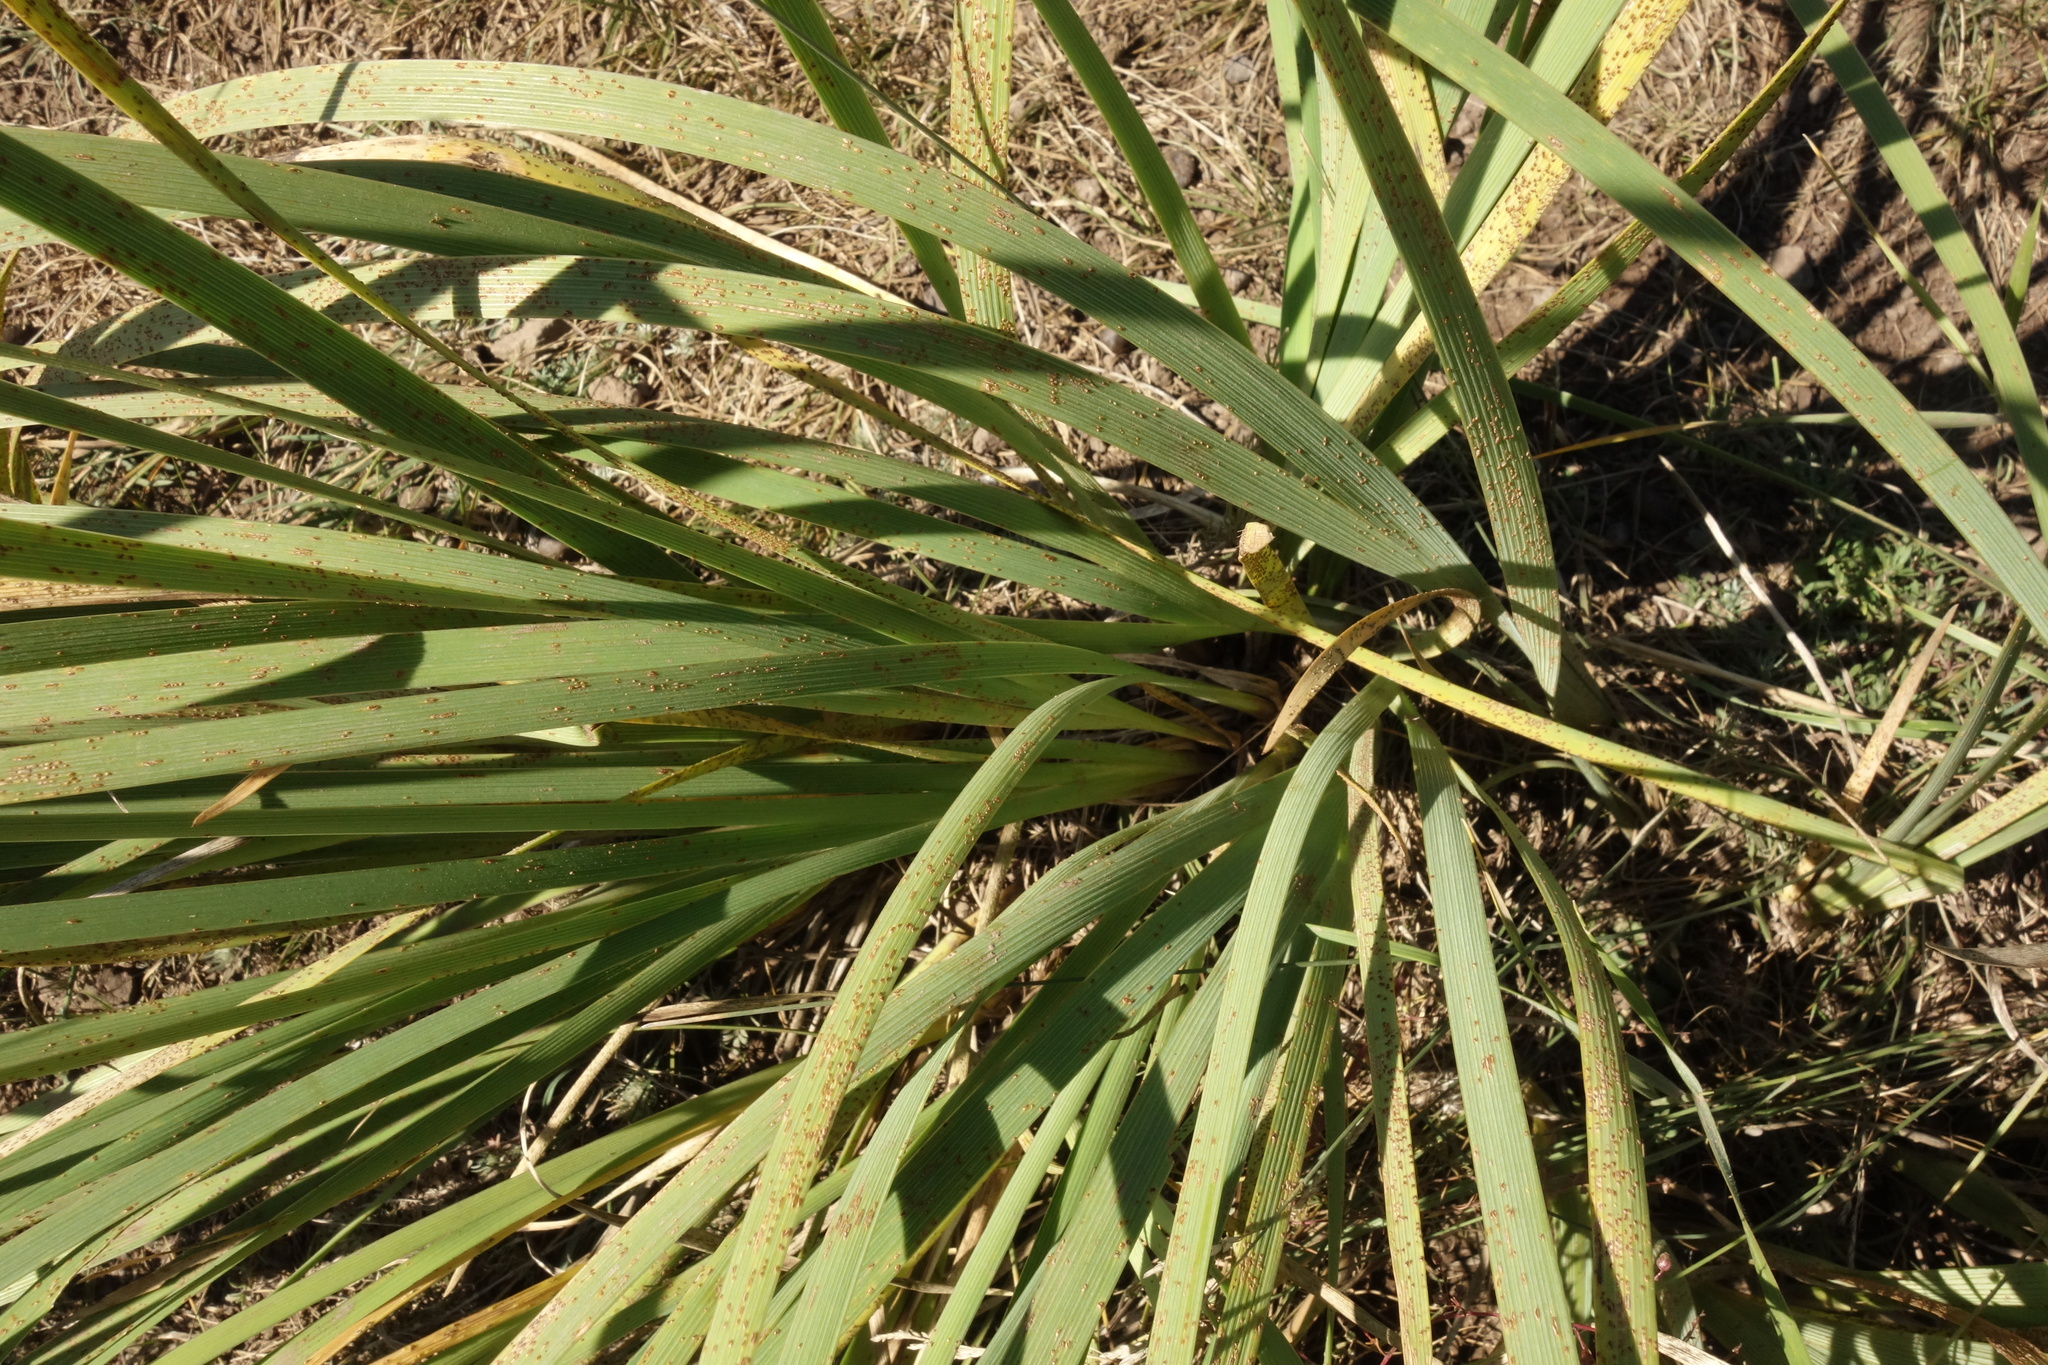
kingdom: Plantae
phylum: Tracheophyta
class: Liliopsida
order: Asparagales
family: Iridaceae
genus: Iris
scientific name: Iris lactea
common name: White-flower chinese iris
